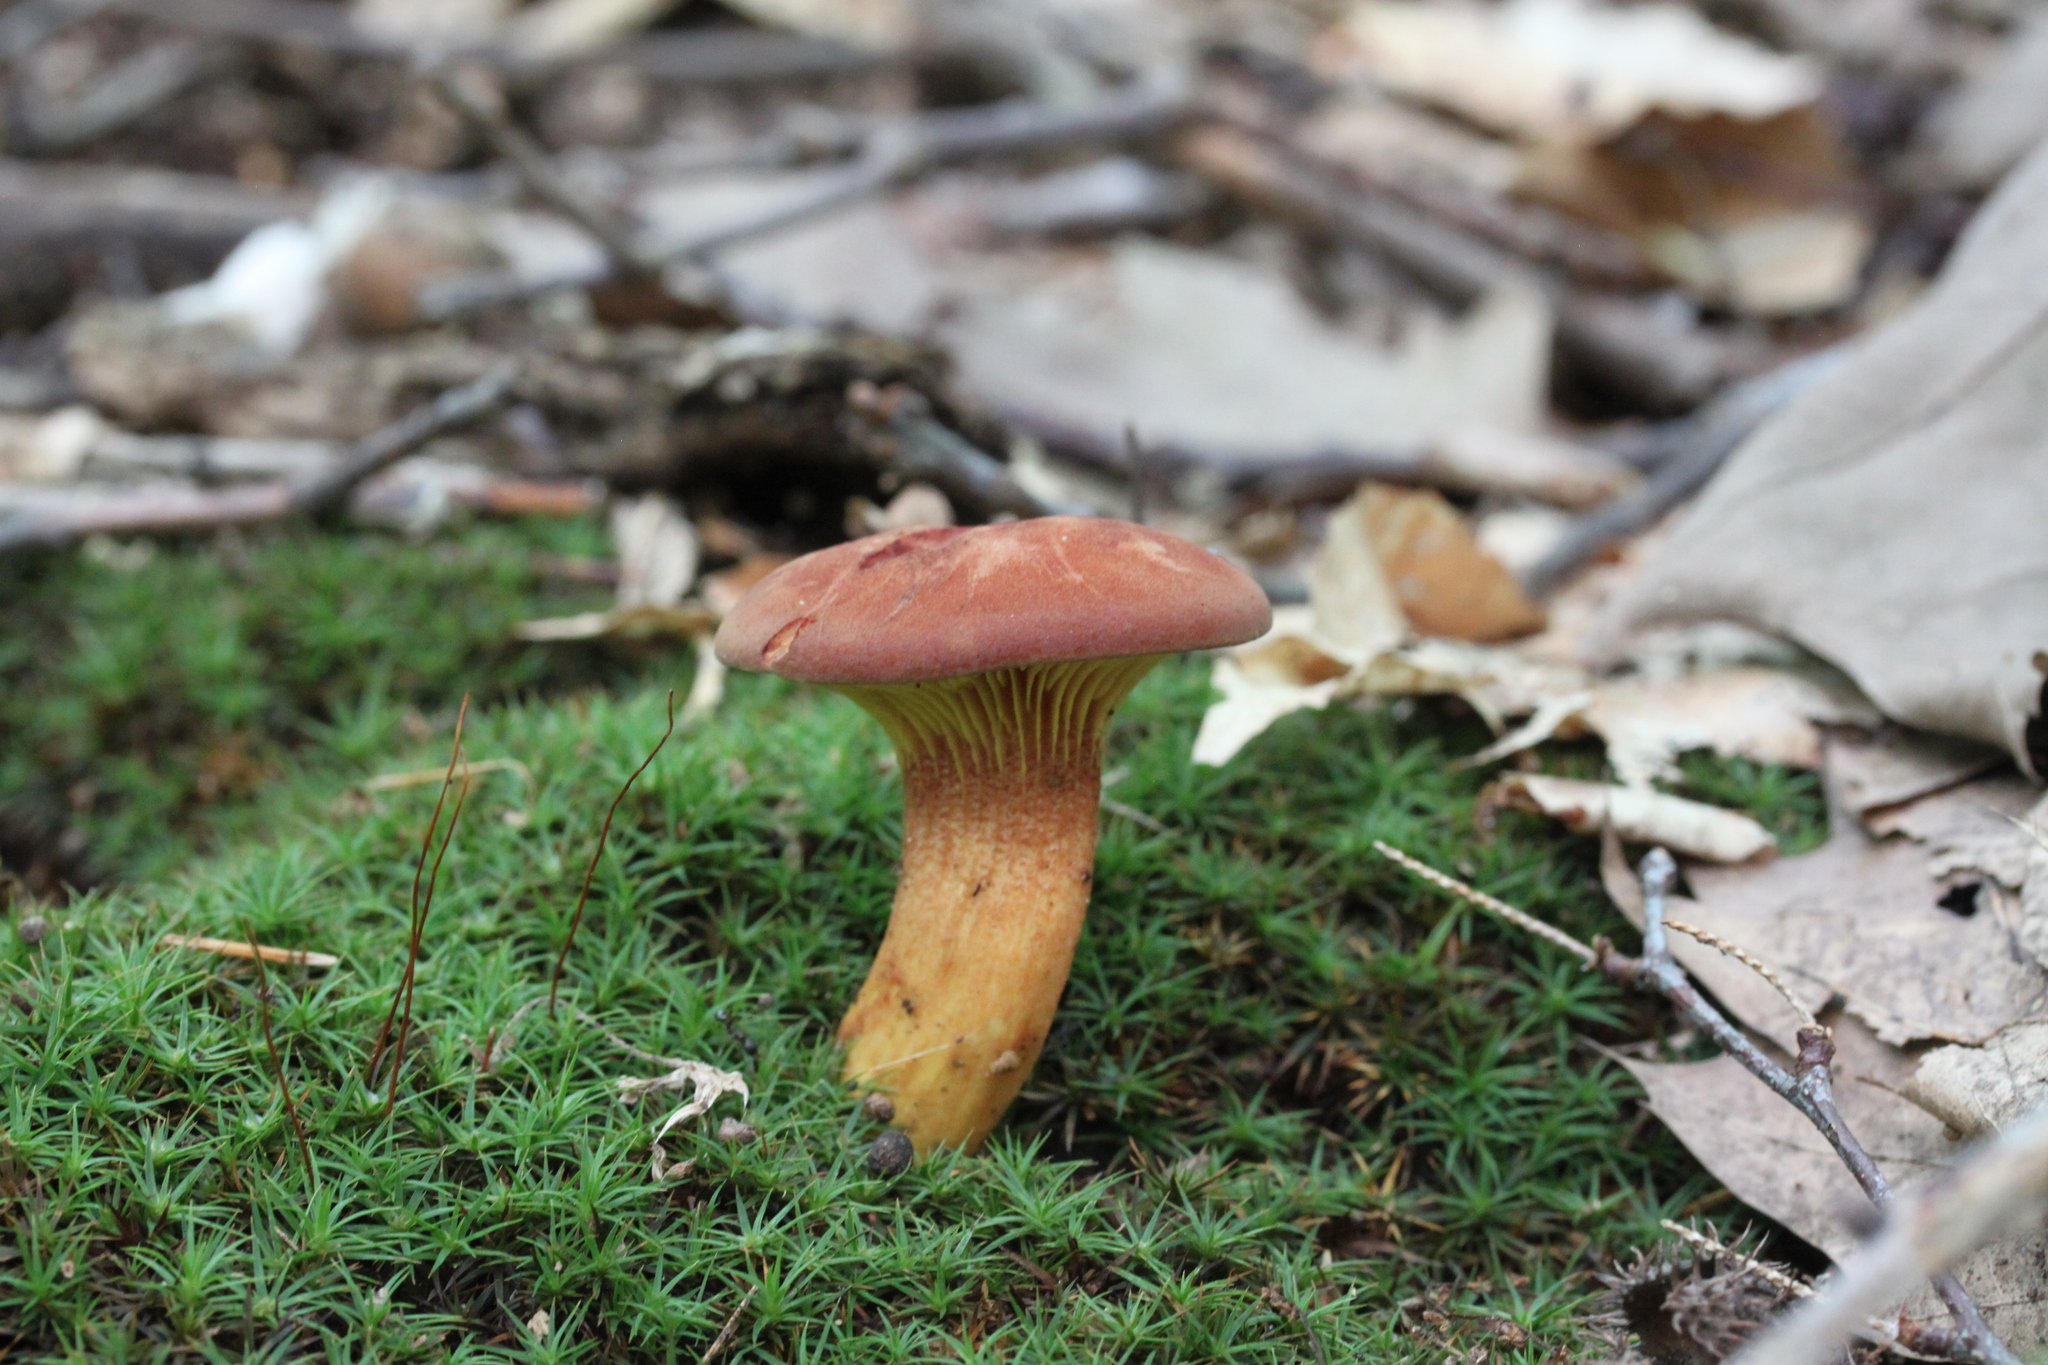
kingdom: Fungi
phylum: Basidiomycota
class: Agaricomycetes
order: Boletales
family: Boletaceae
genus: Phylloporus
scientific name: Phylloporus rhodoxanthus
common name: Golden gilled bolete
